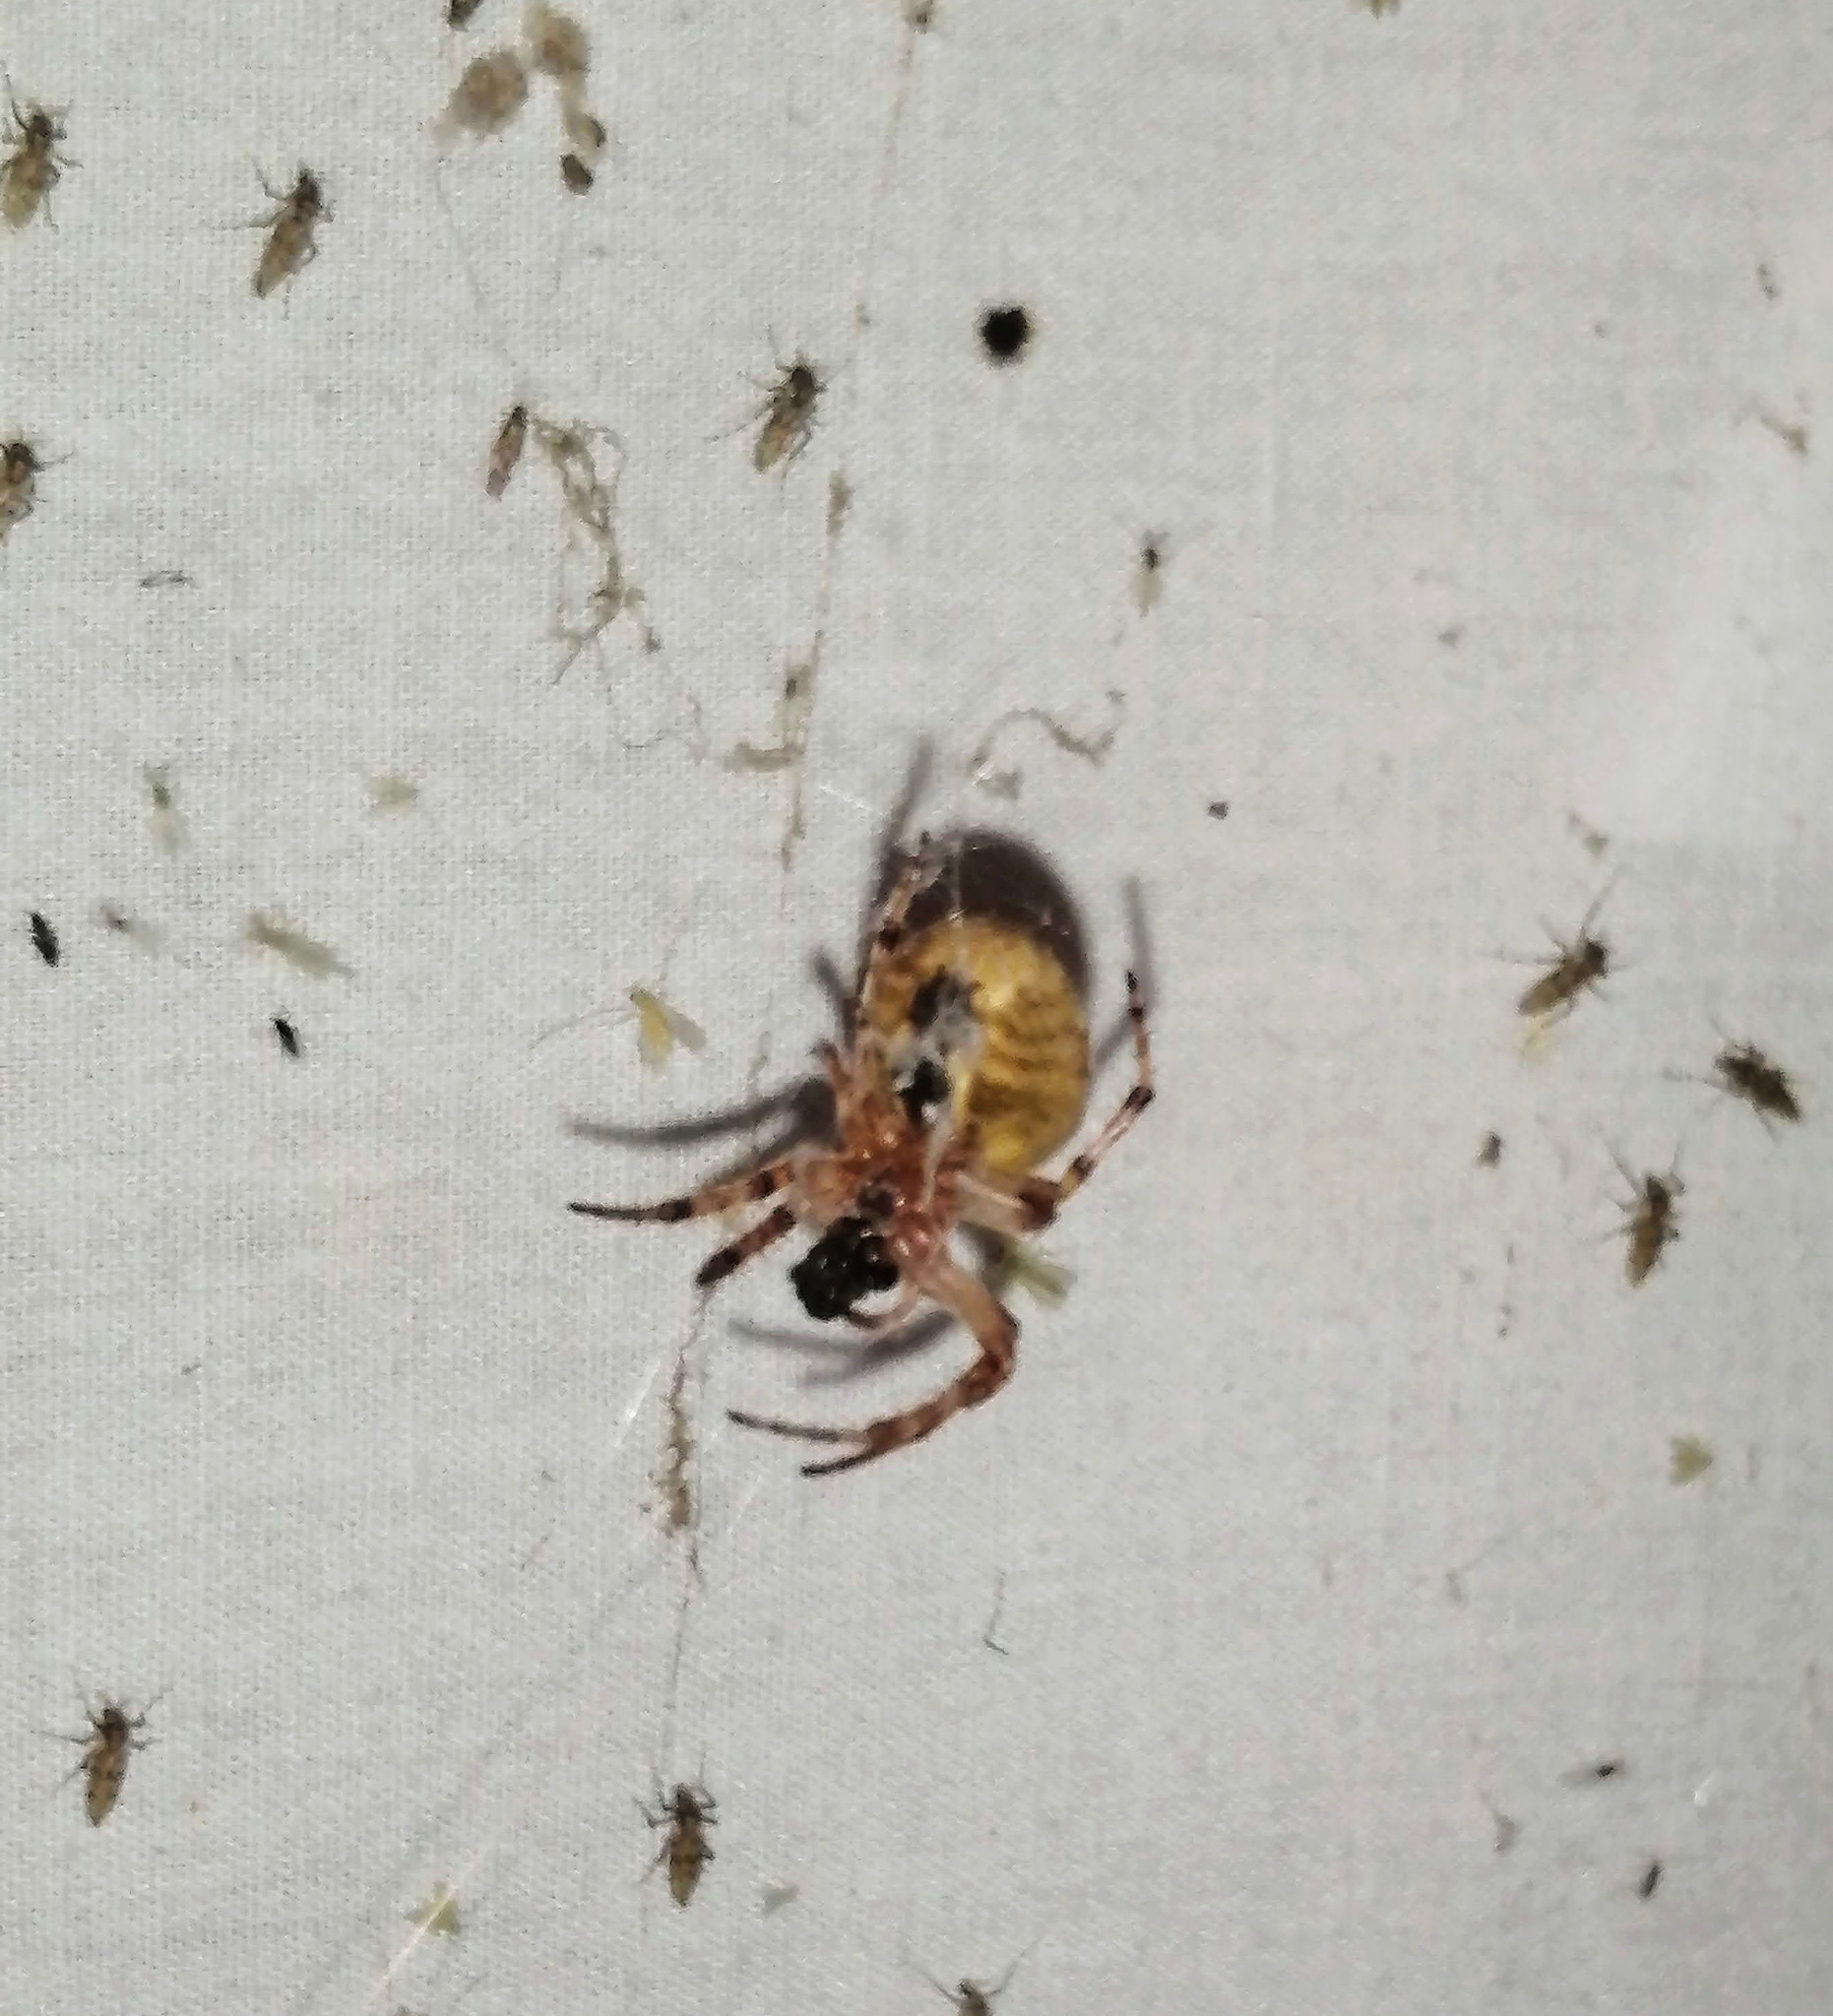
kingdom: Animalia
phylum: Arthropoda
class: Arachnida
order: Araneae
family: Araneidae
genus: Larinioides
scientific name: Larinioides patagiatus
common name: Ornamental orbweaver
